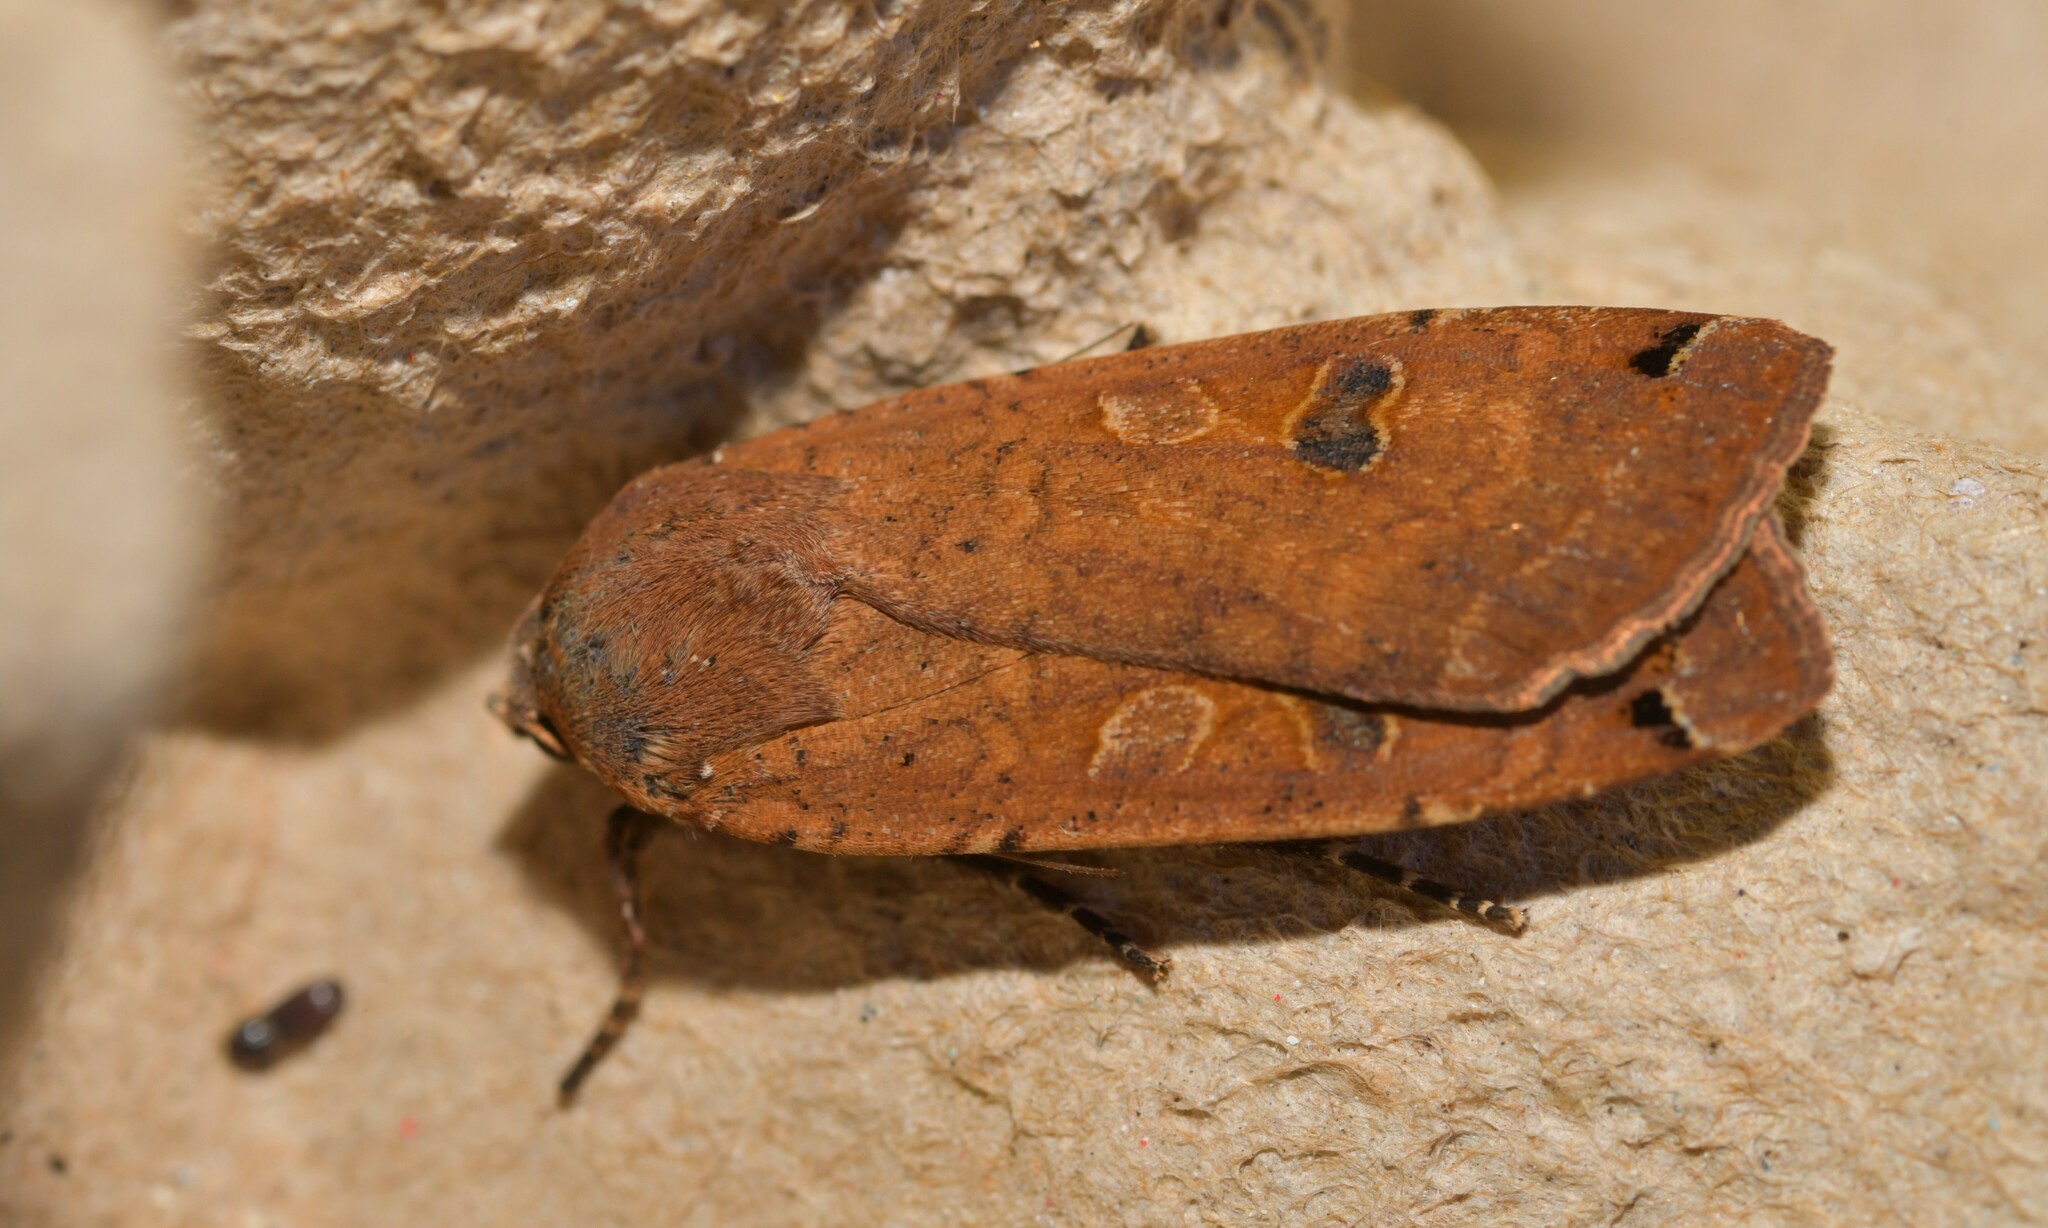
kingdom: Animalia
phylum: Arthropoda
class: Insecta
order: Lepidoptera
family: Noctuidae
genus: Noctua
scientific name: Noctua pronuba
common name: Large yellow underwing
